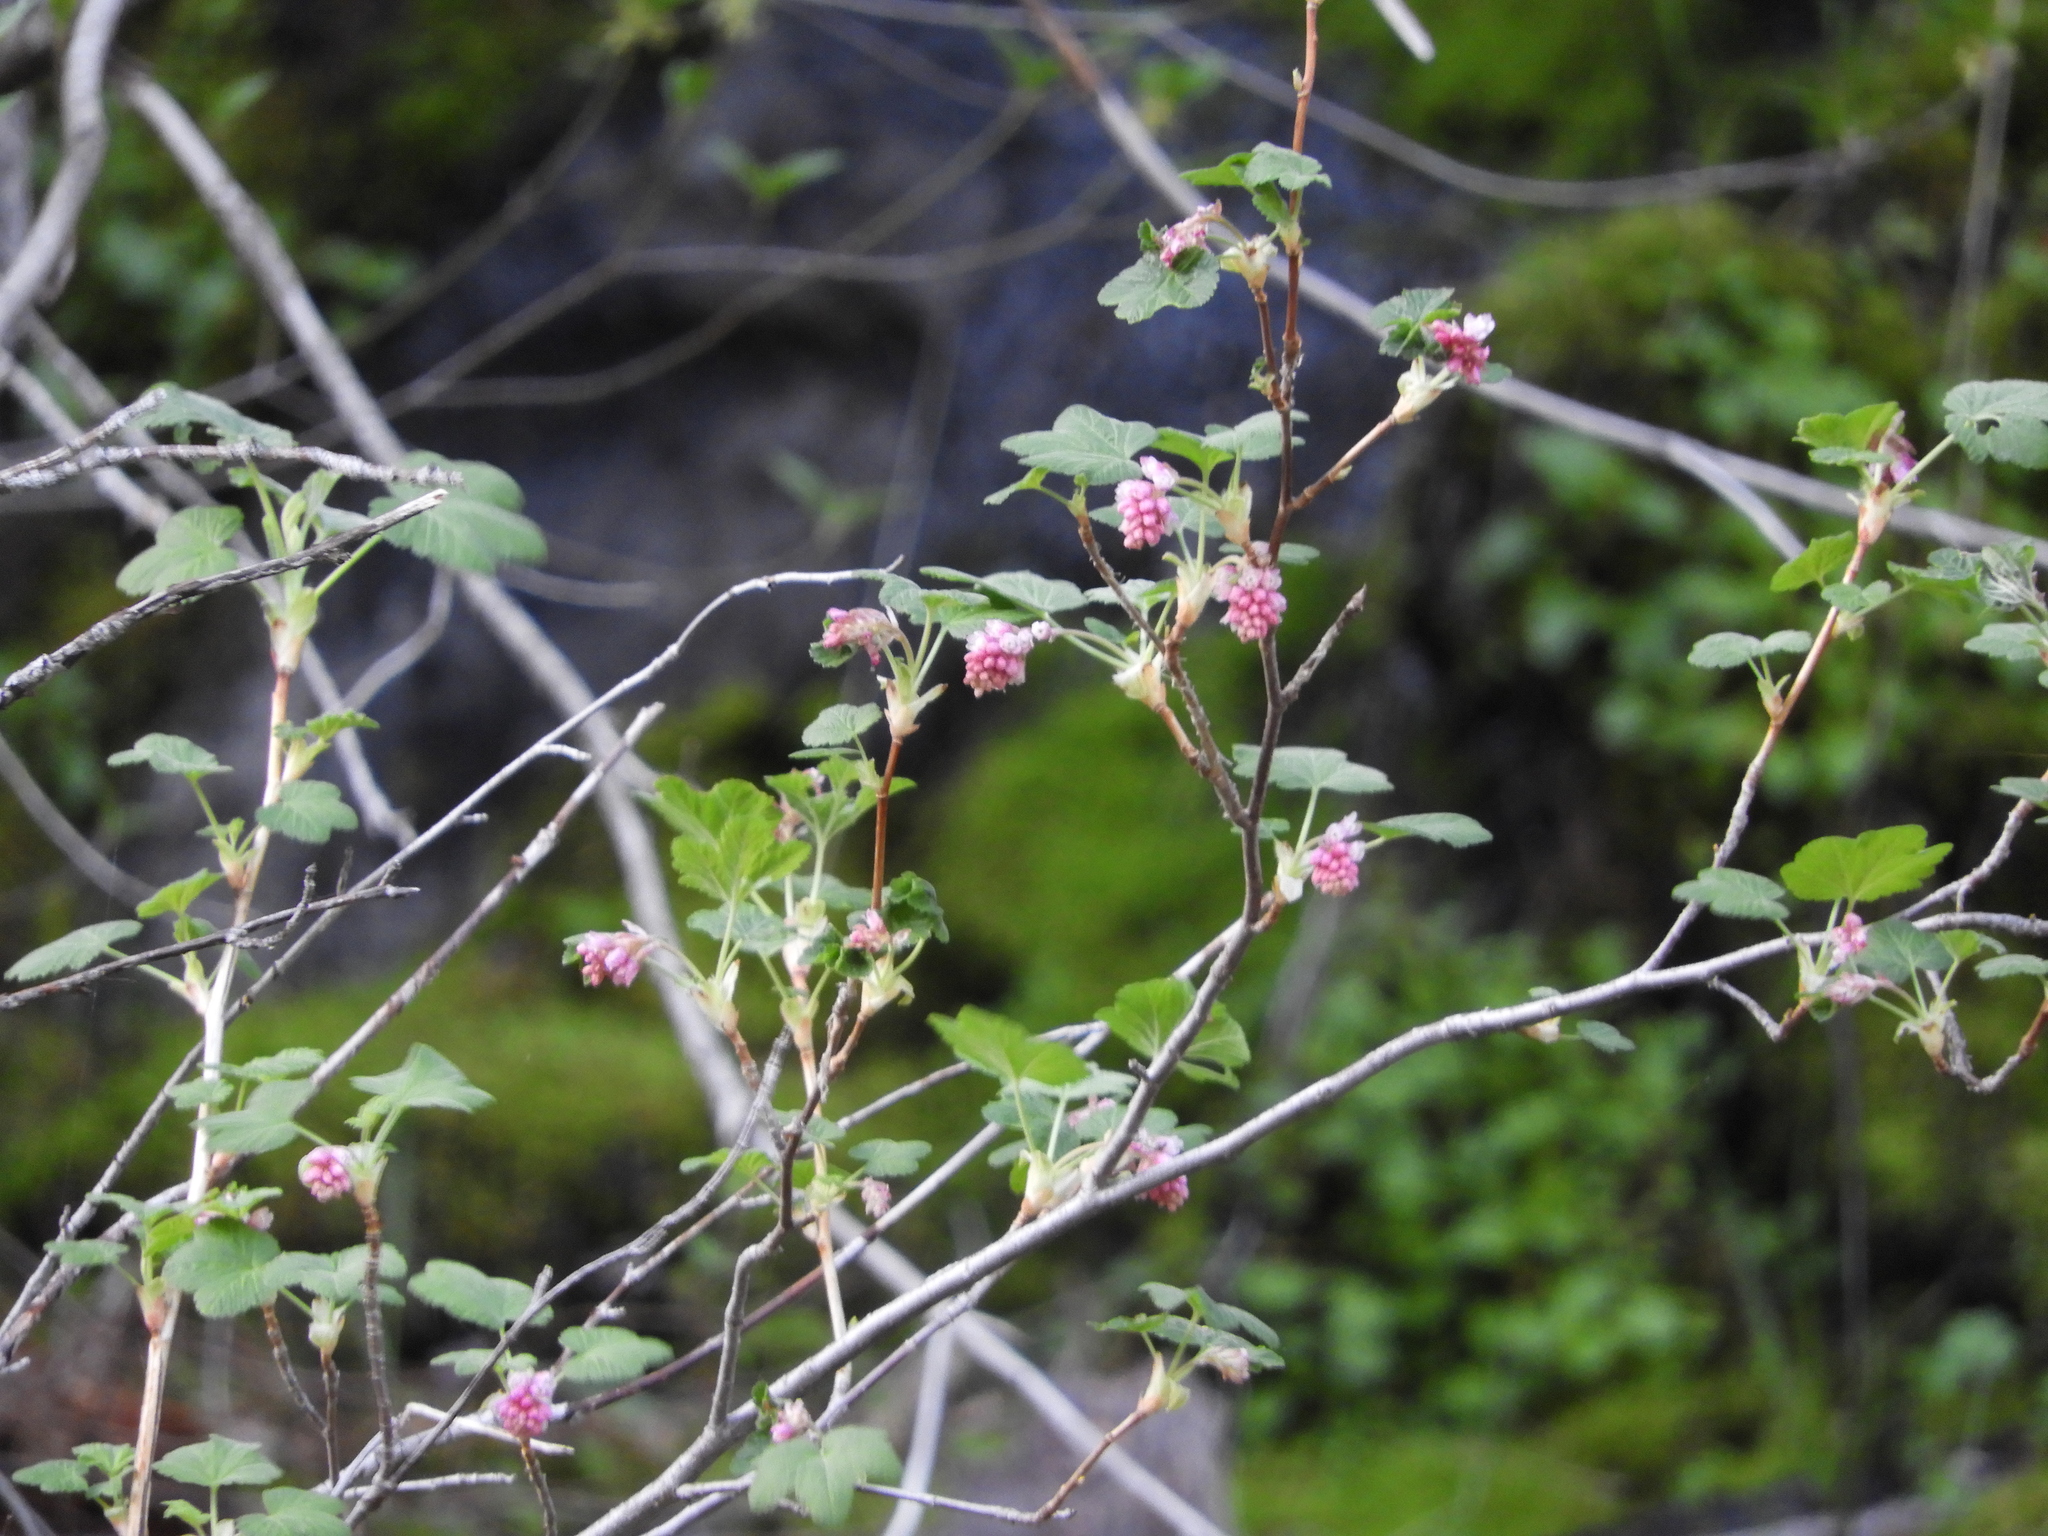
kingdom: Plantae
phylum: Tracheophyta
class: Magnoliopsida
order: Saxifragales
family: Grossulariaceae
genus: Ribes
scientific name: Ribes malvaceum
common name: Chaparral currant
